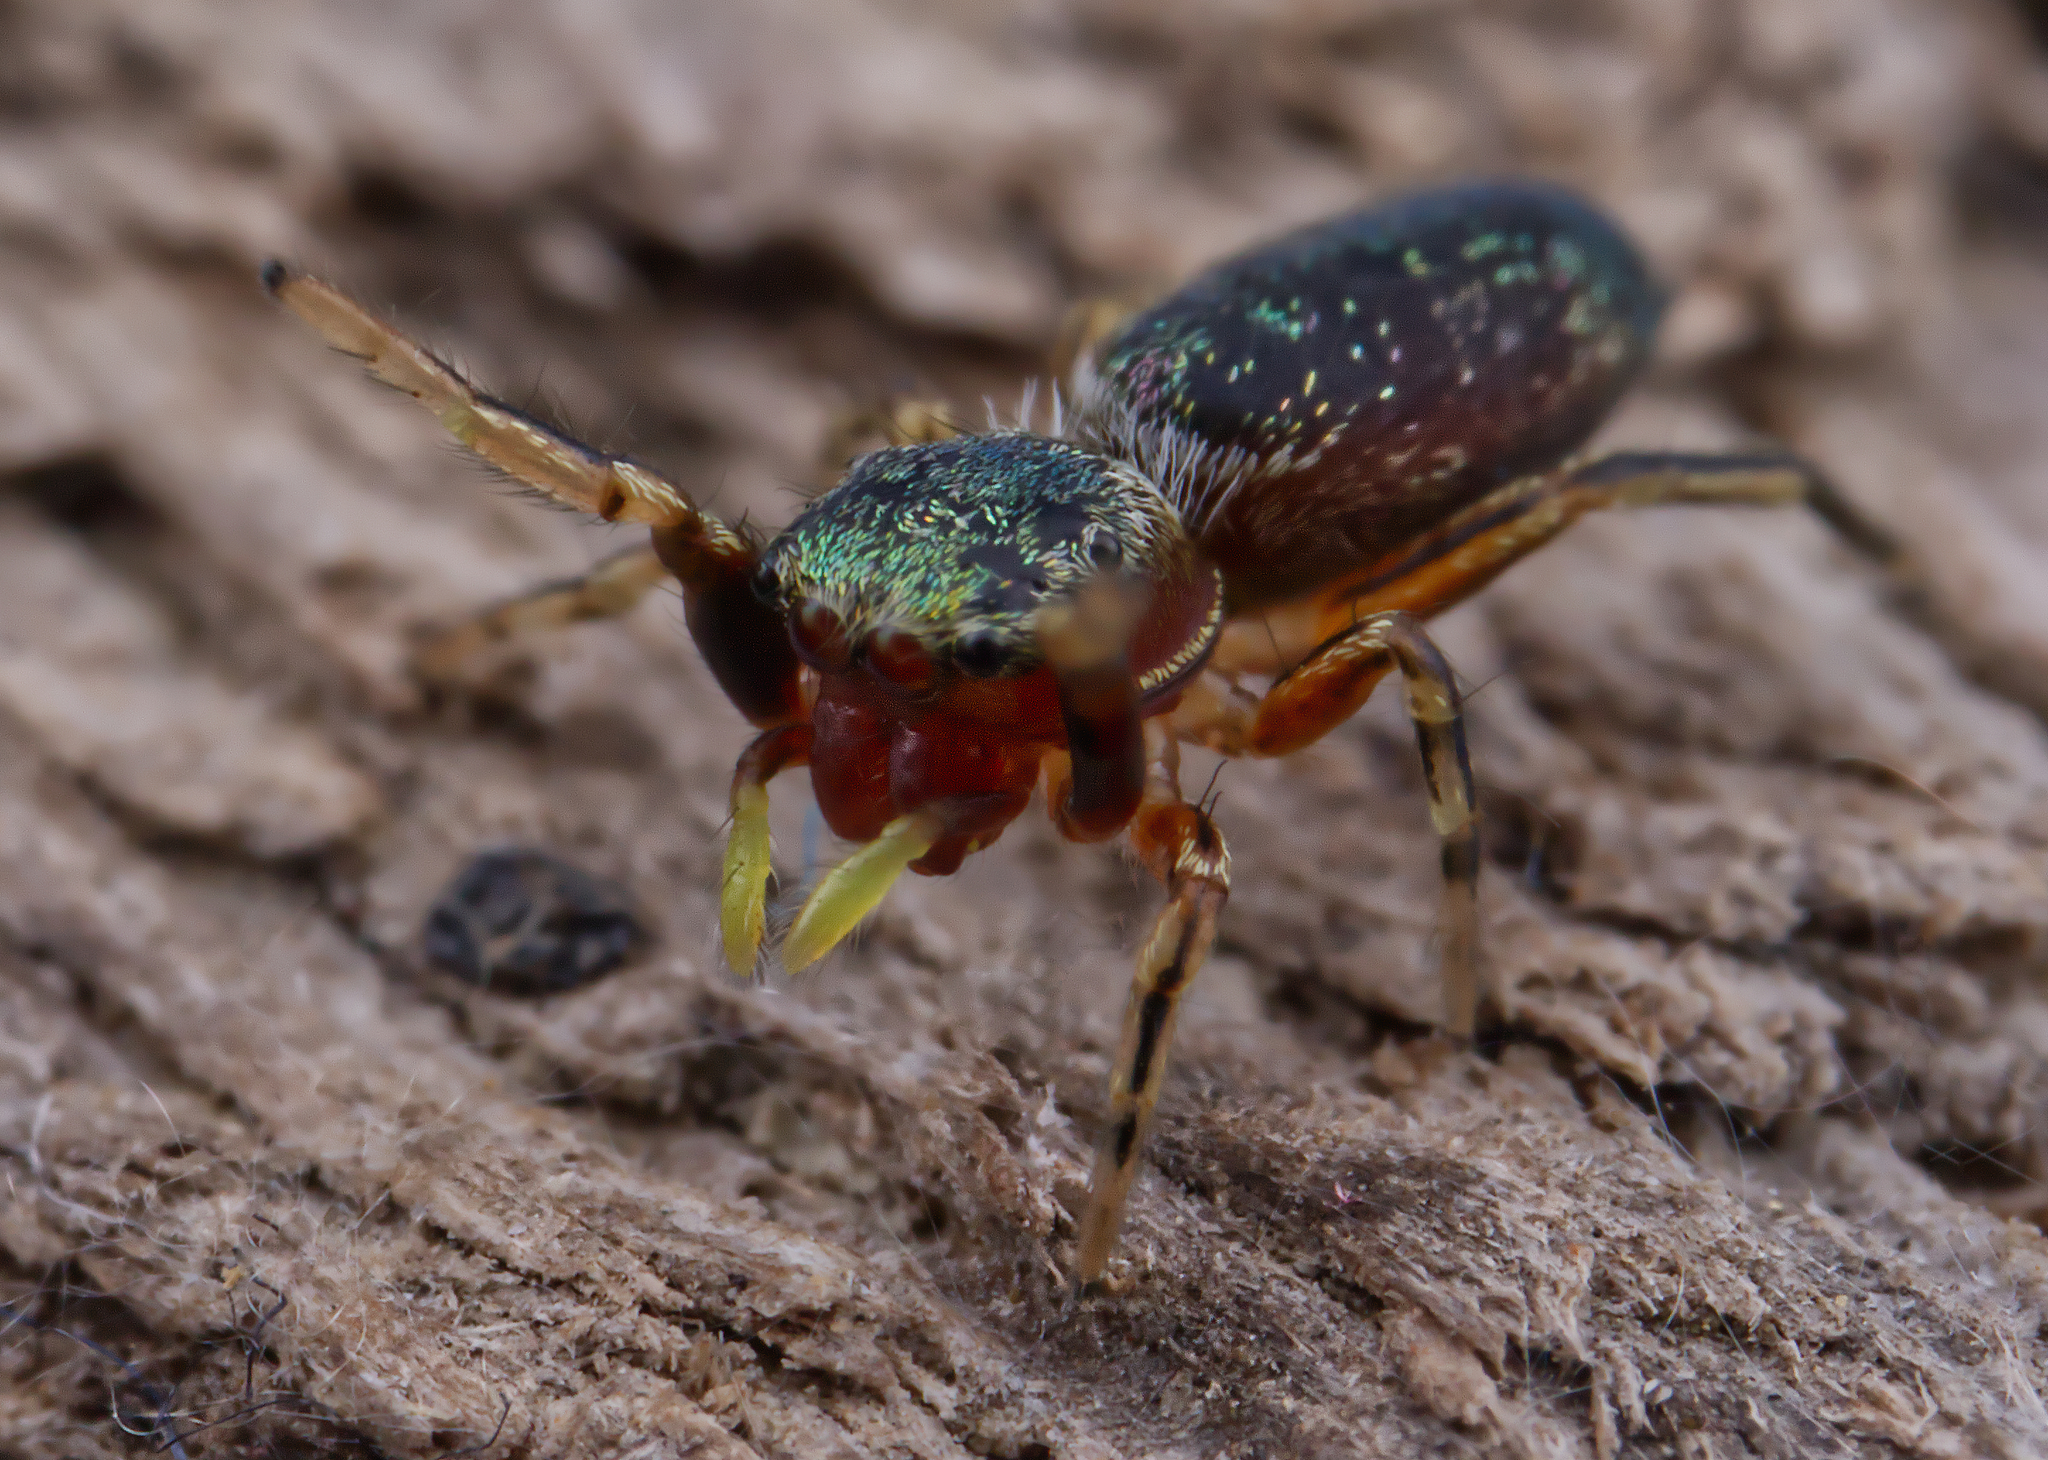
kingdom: Animalia
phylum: Arthropoda
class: Arachnida
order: Araneae
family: Salticidae
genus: Tutelina
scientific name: Tutelina elegans
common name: Thin-spined jumping spider
